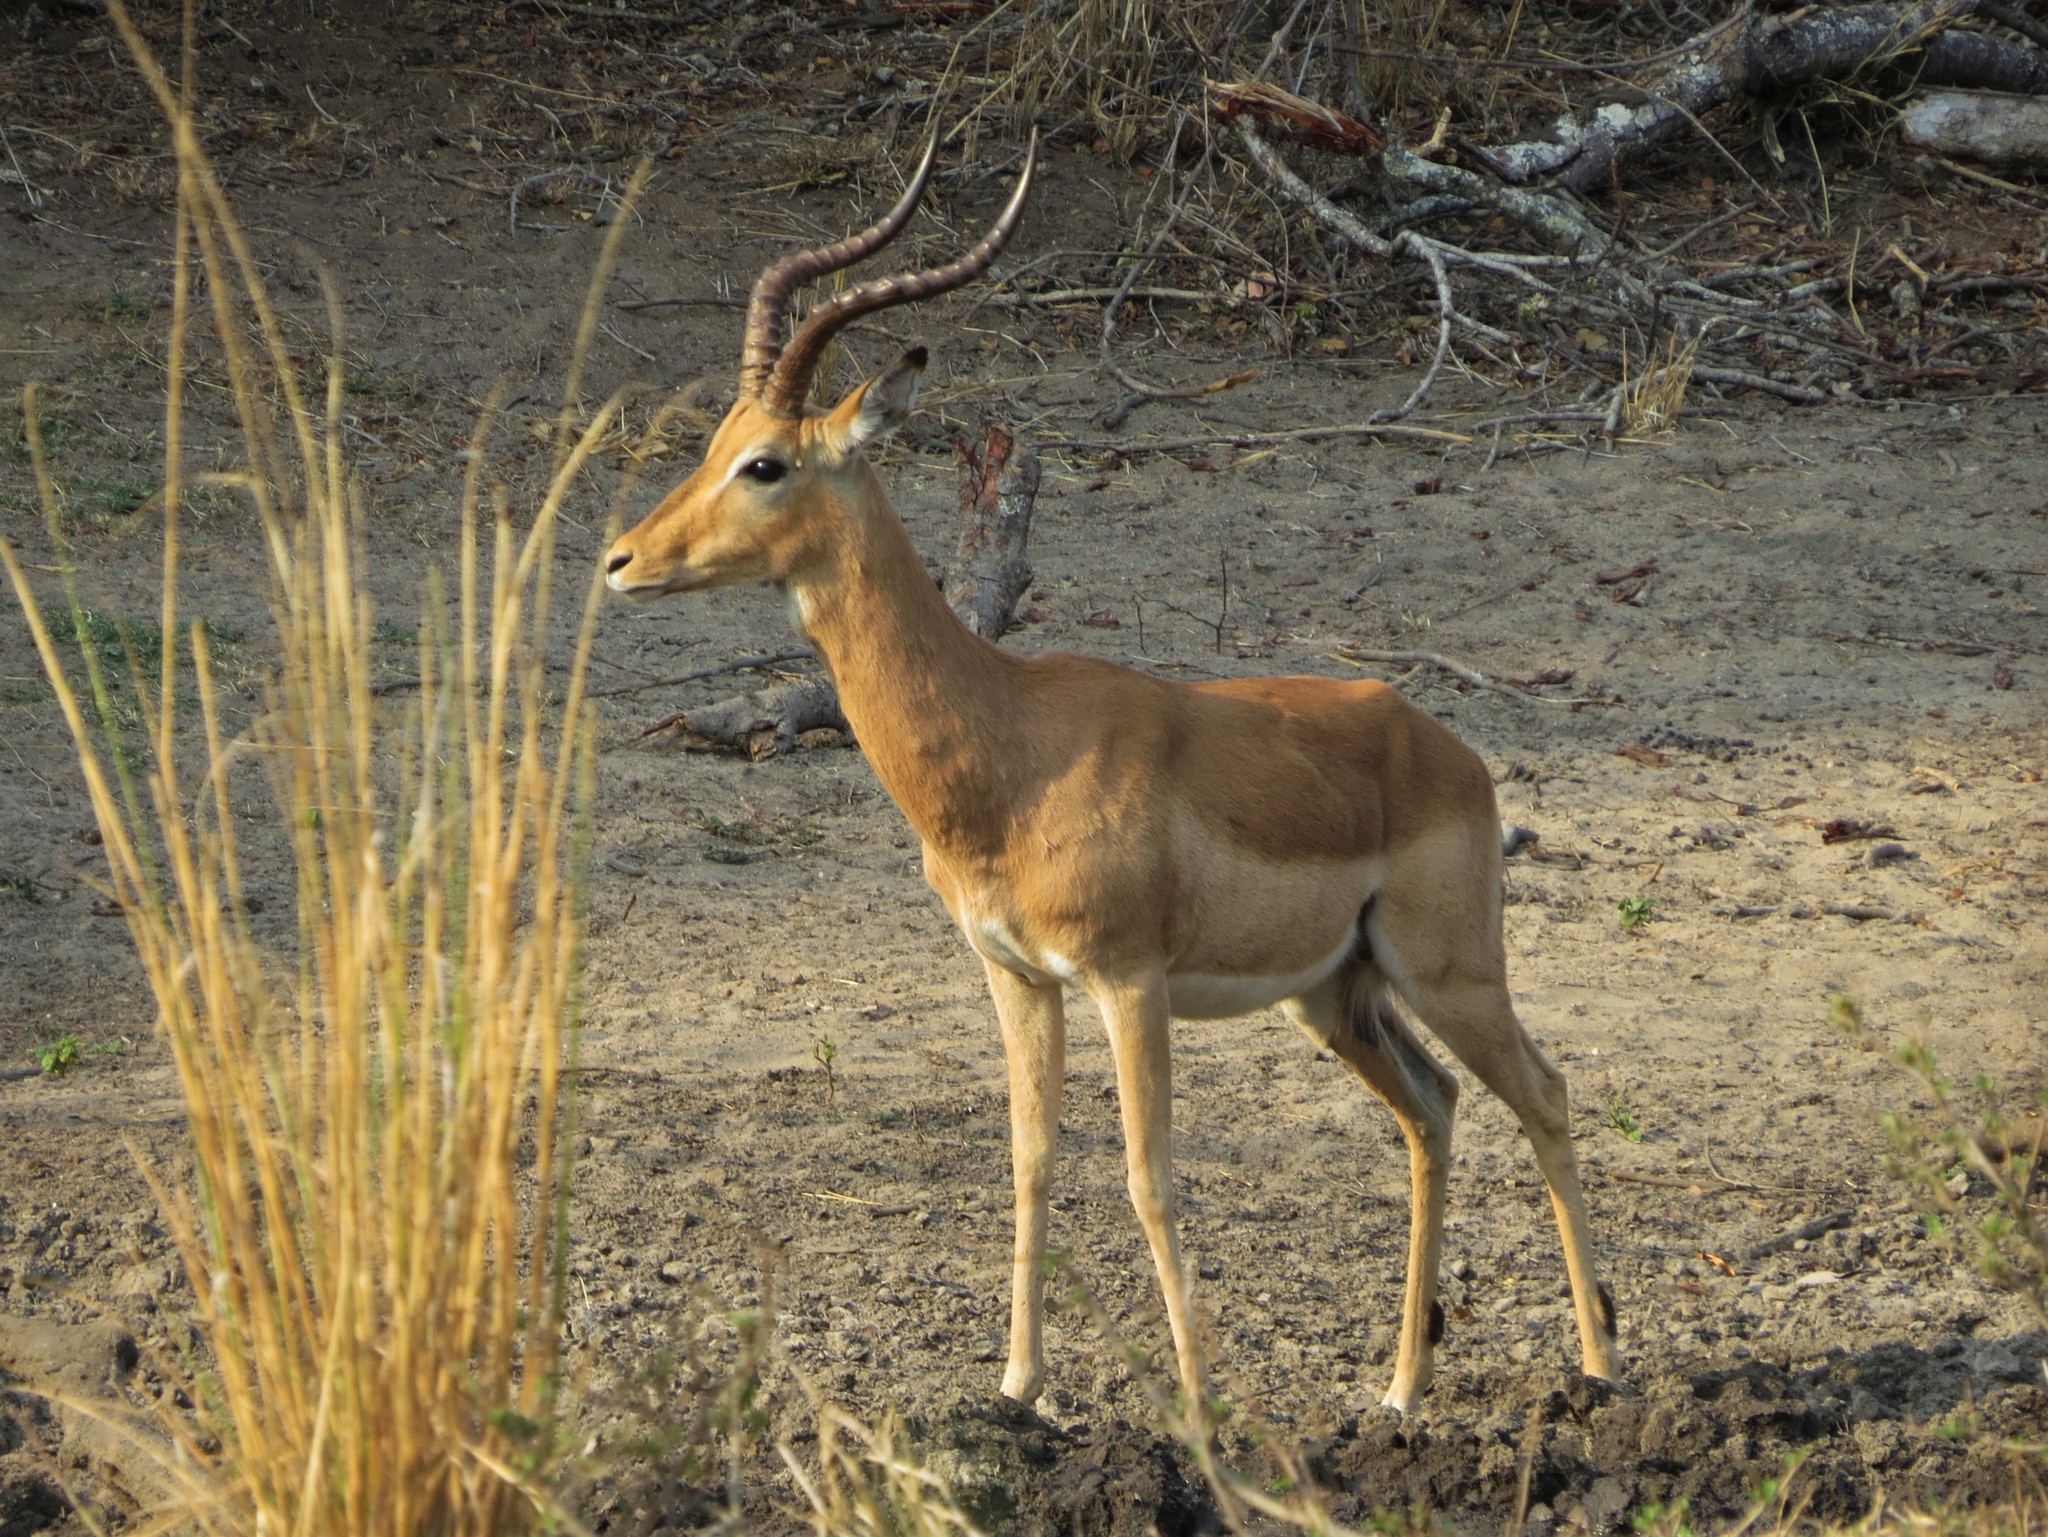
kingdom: Animalia
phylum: Chordata
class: Mammalia
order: Artiodactyla
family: Bovidae
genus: Aepyceros
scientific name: Aepyceros melampus
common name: Impala
